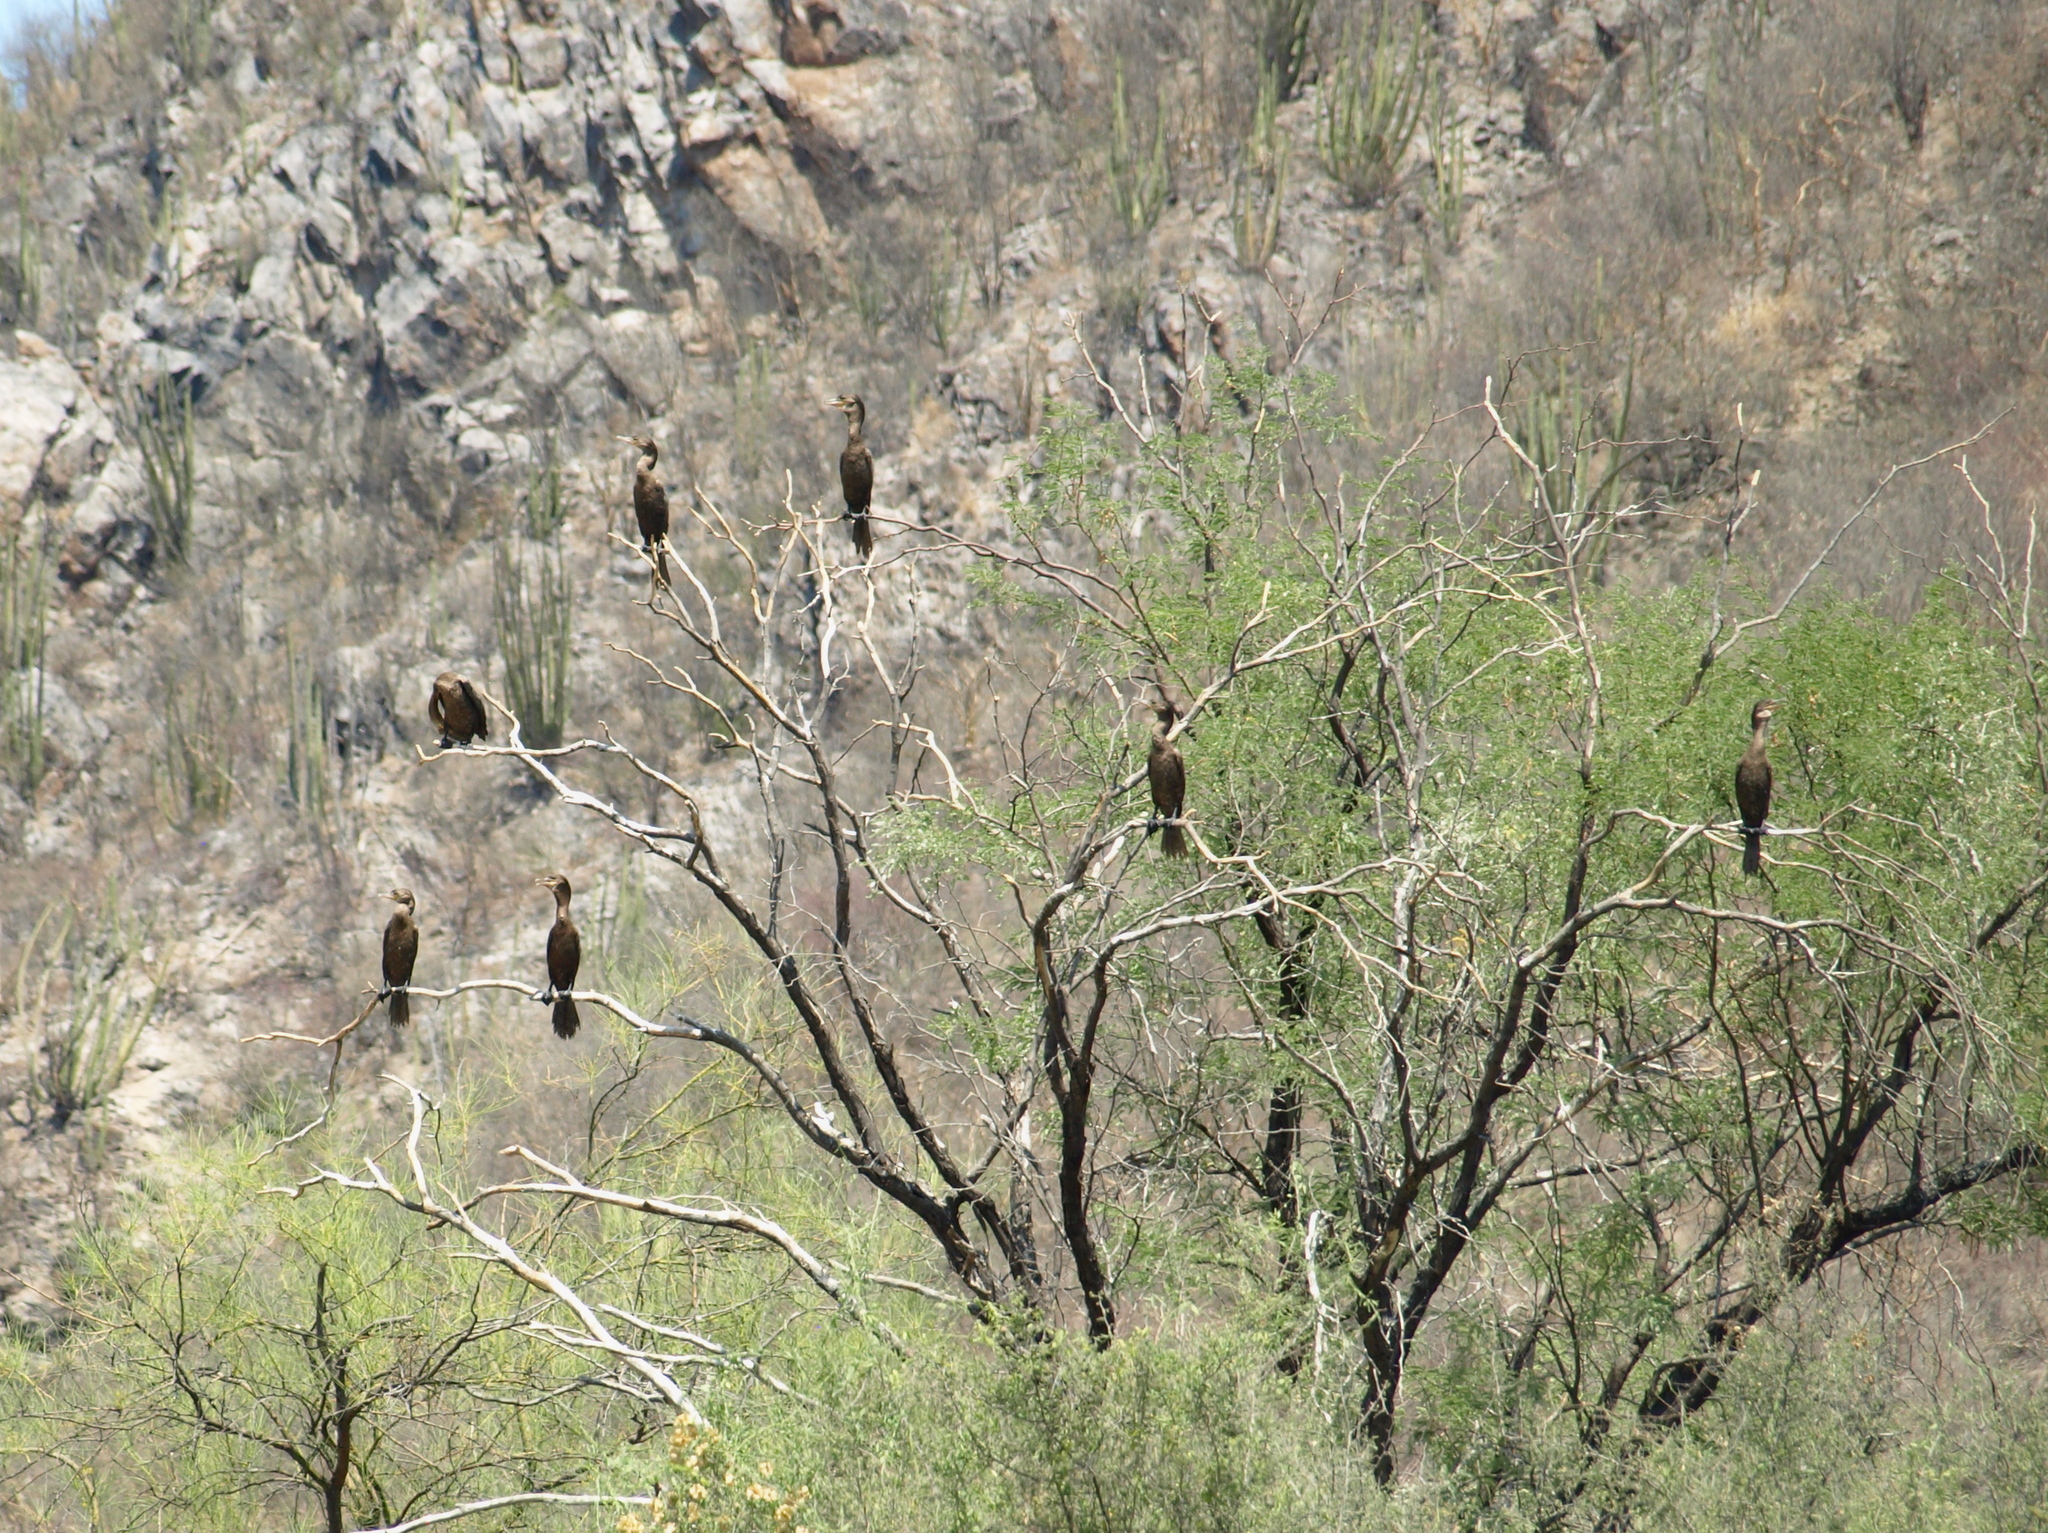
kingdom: Animalia
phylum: Chordata
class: Aves
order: Suliformes
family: Phalacrocoracidae
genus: Phalacrocorax
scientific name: Phalacrocorax brasilianus
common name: Neotropic cormorant
